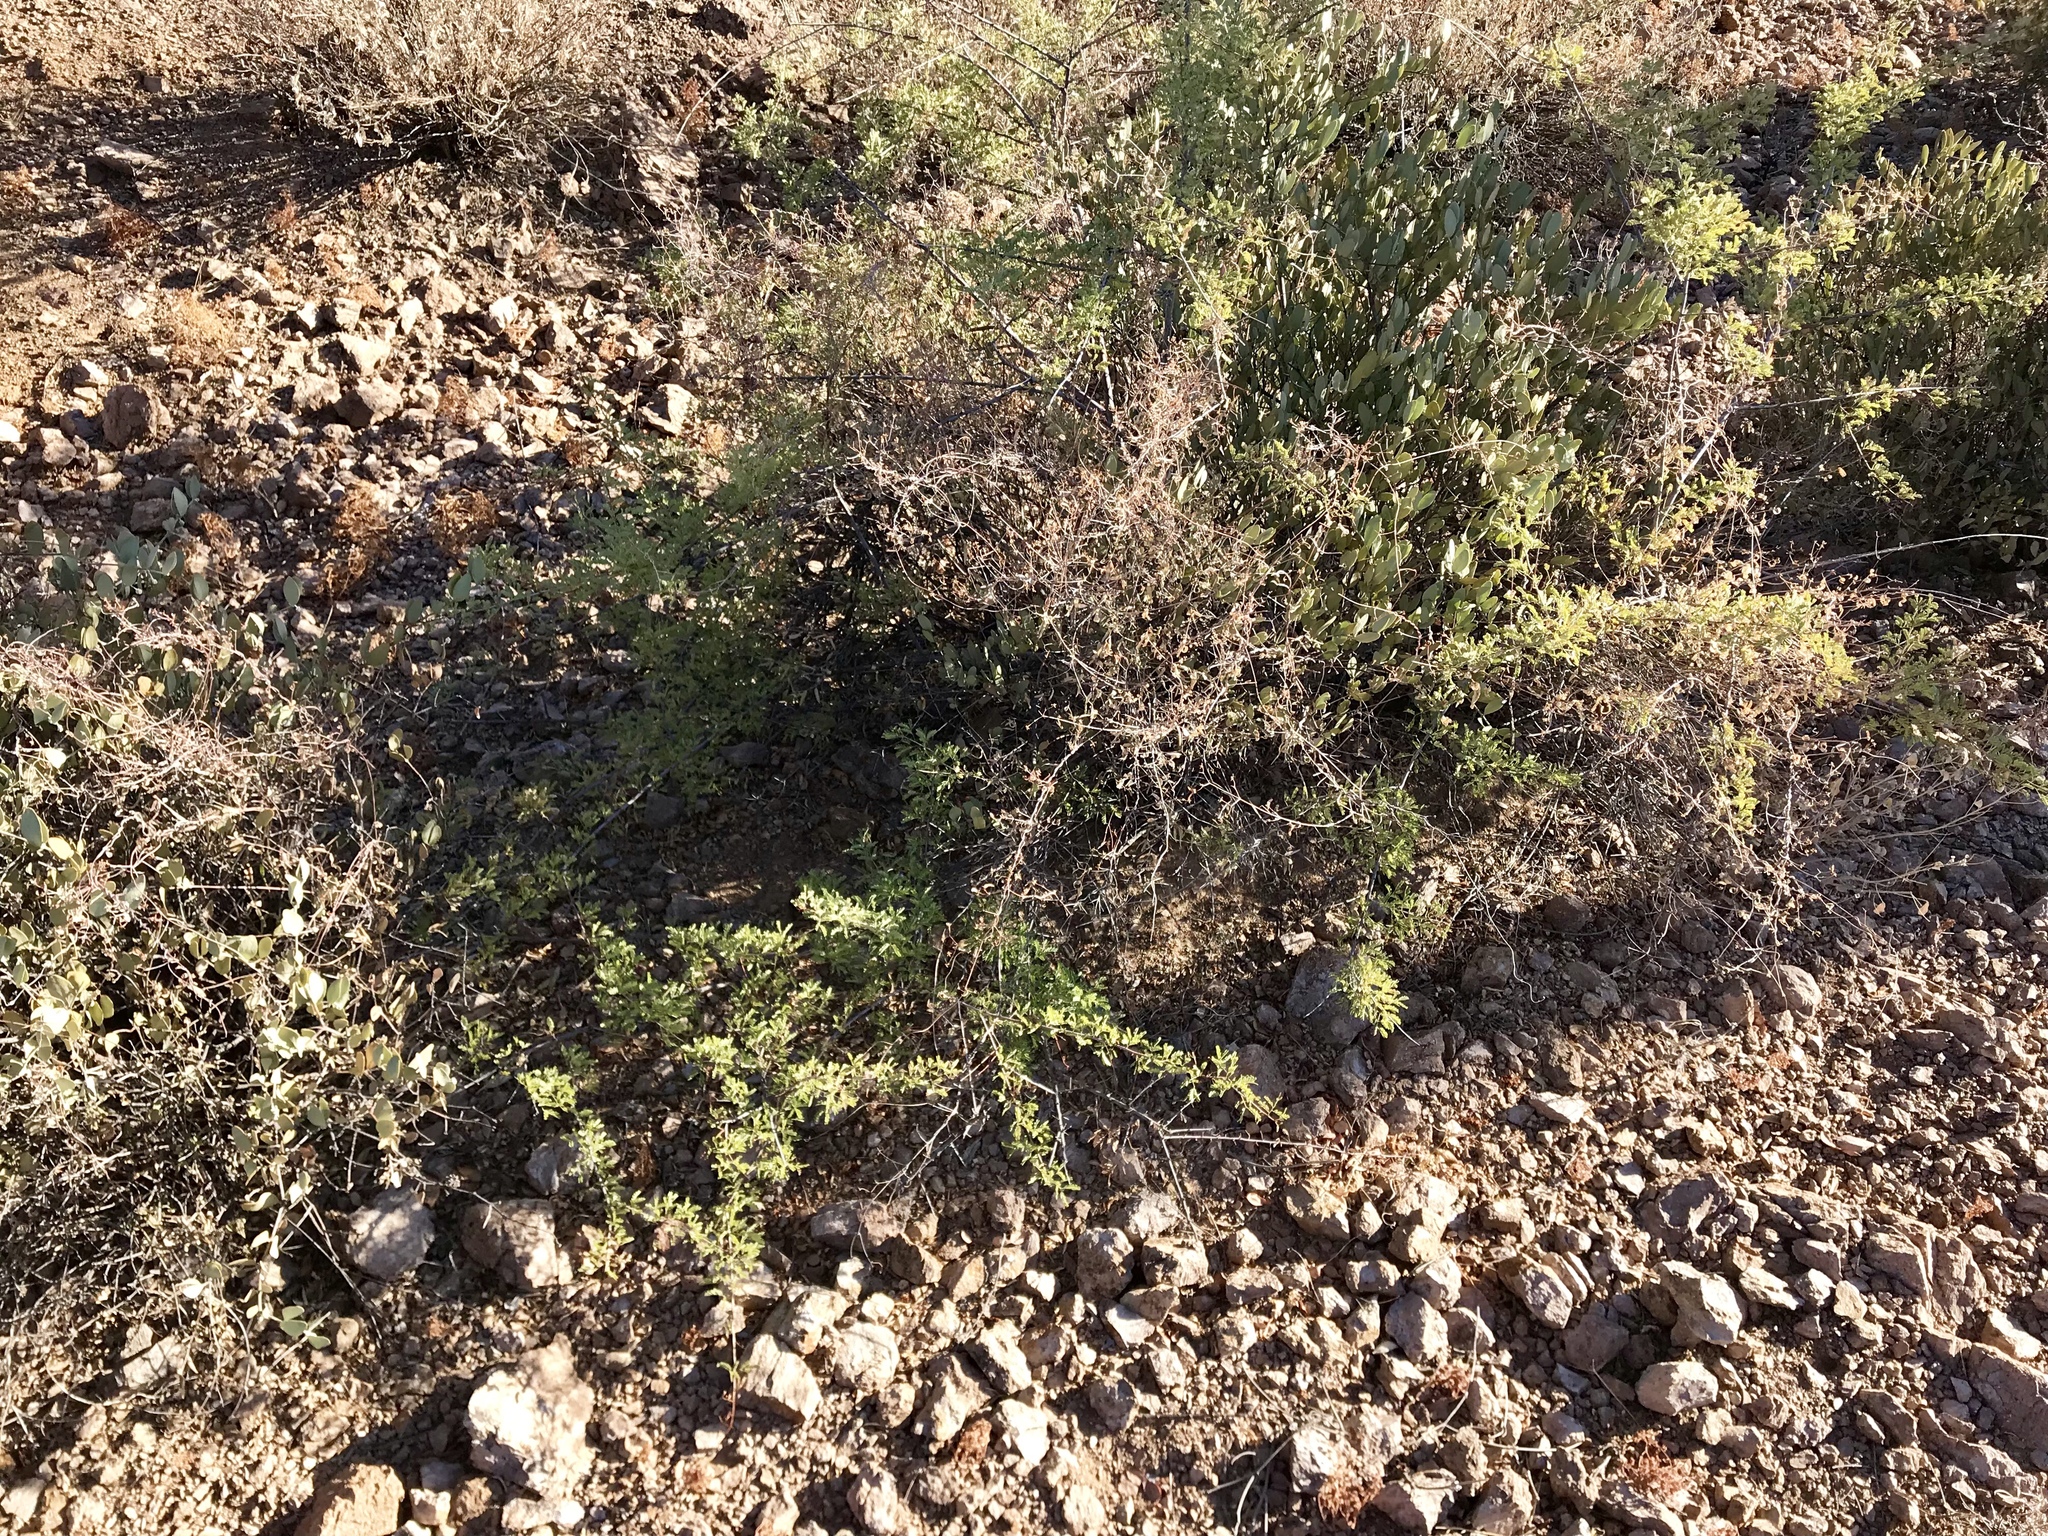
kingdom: Plantae
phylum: Tracheophyta
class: Magnoliopsida
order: Fabales
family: Fabaceae
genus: Senegalia
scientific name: Senegalia greggii
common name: Texas-mimosa
